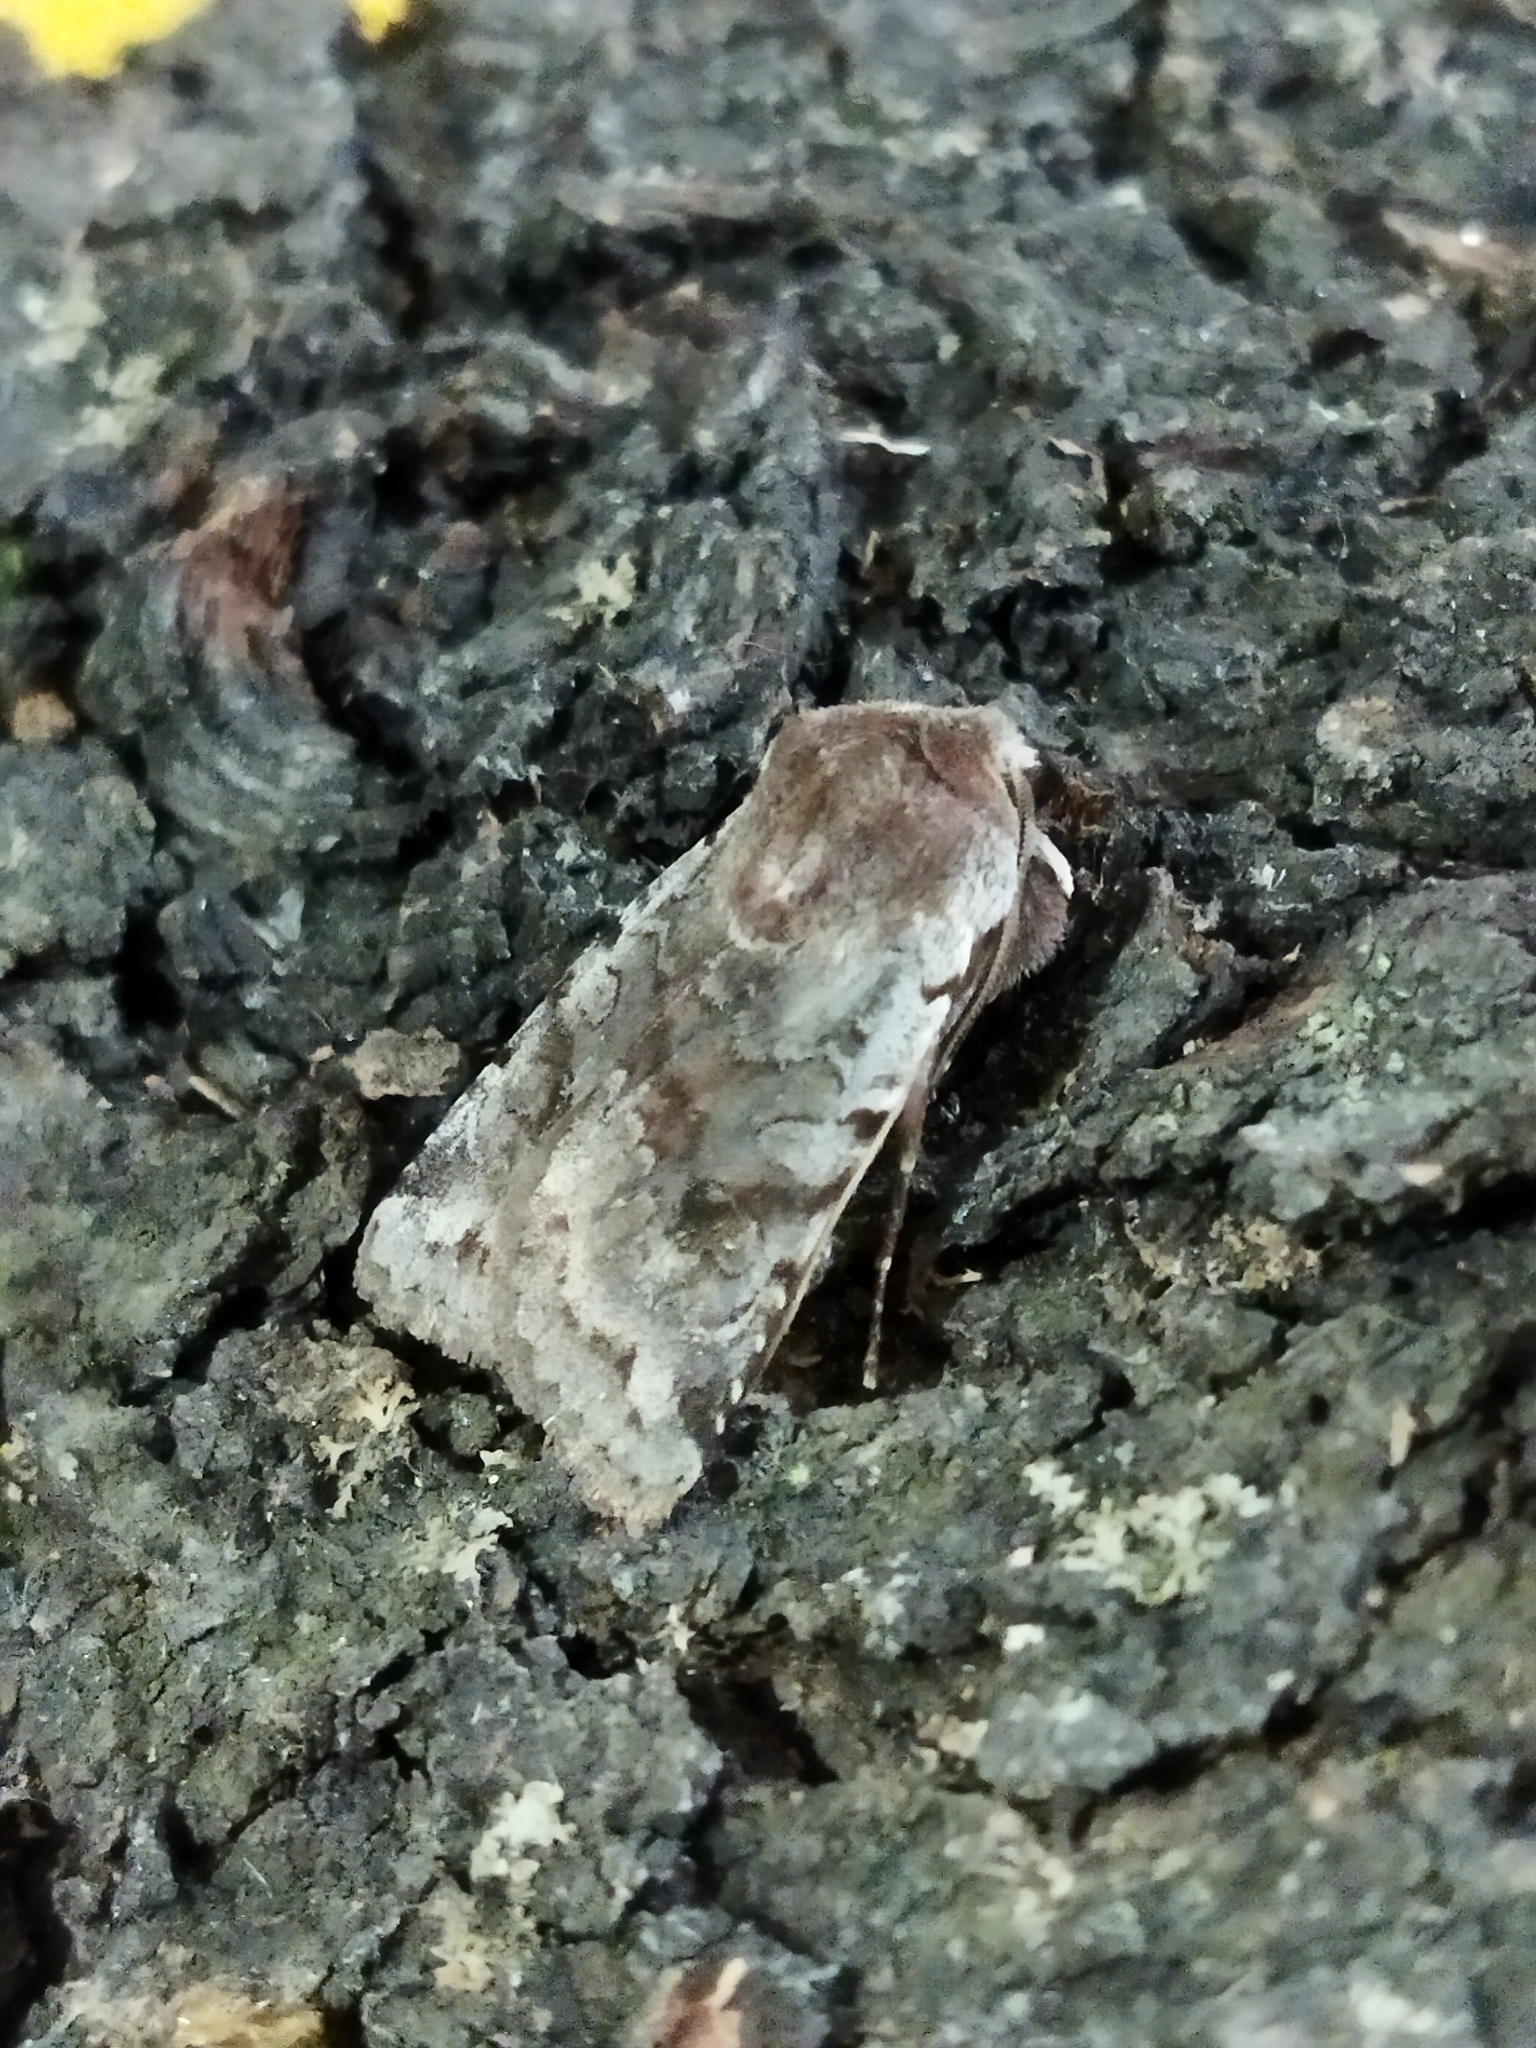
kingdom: Animalia
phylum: Arthropoda
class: Insecta
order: Lepidoptera
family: Noctuidae
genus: Cerastis
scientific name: Cerastis rubricosa
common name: Red chestnut
